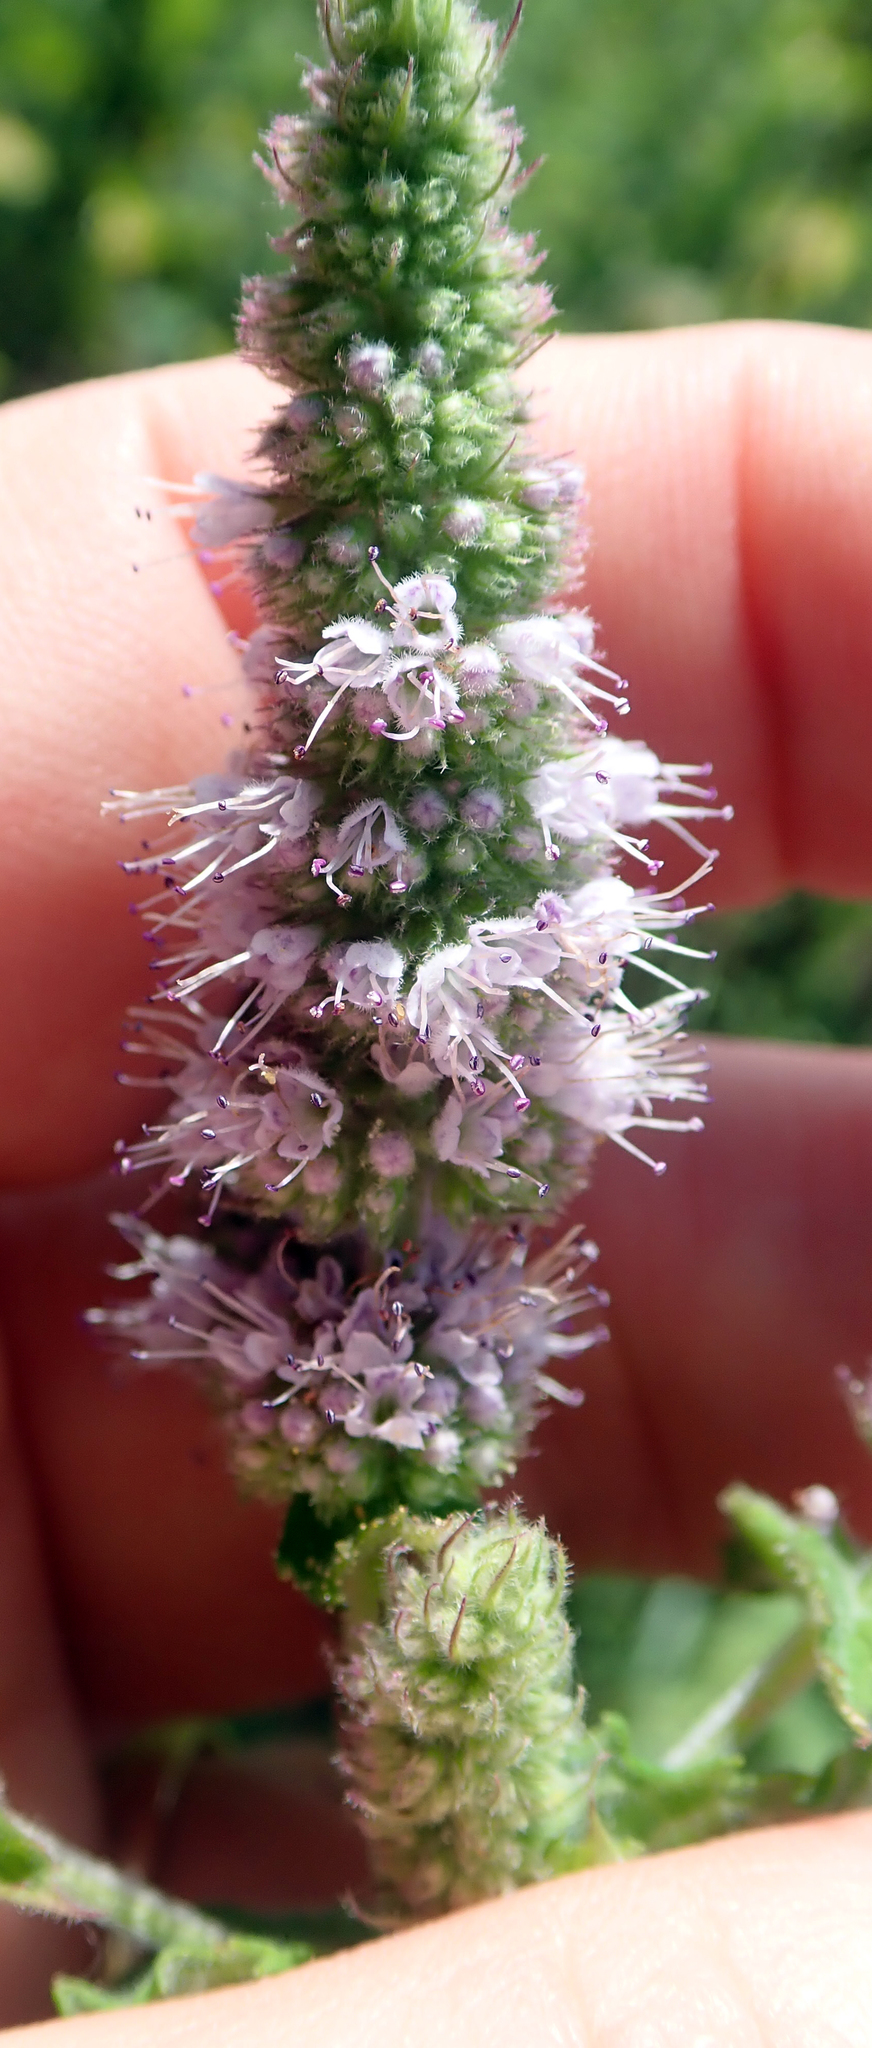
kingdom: Plantae
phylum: Tracheophyta
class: Magnoliopsida
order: Lamiales
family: Lamiaceae
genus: Mentha
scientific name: Mentha spicata
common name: Spearmint
